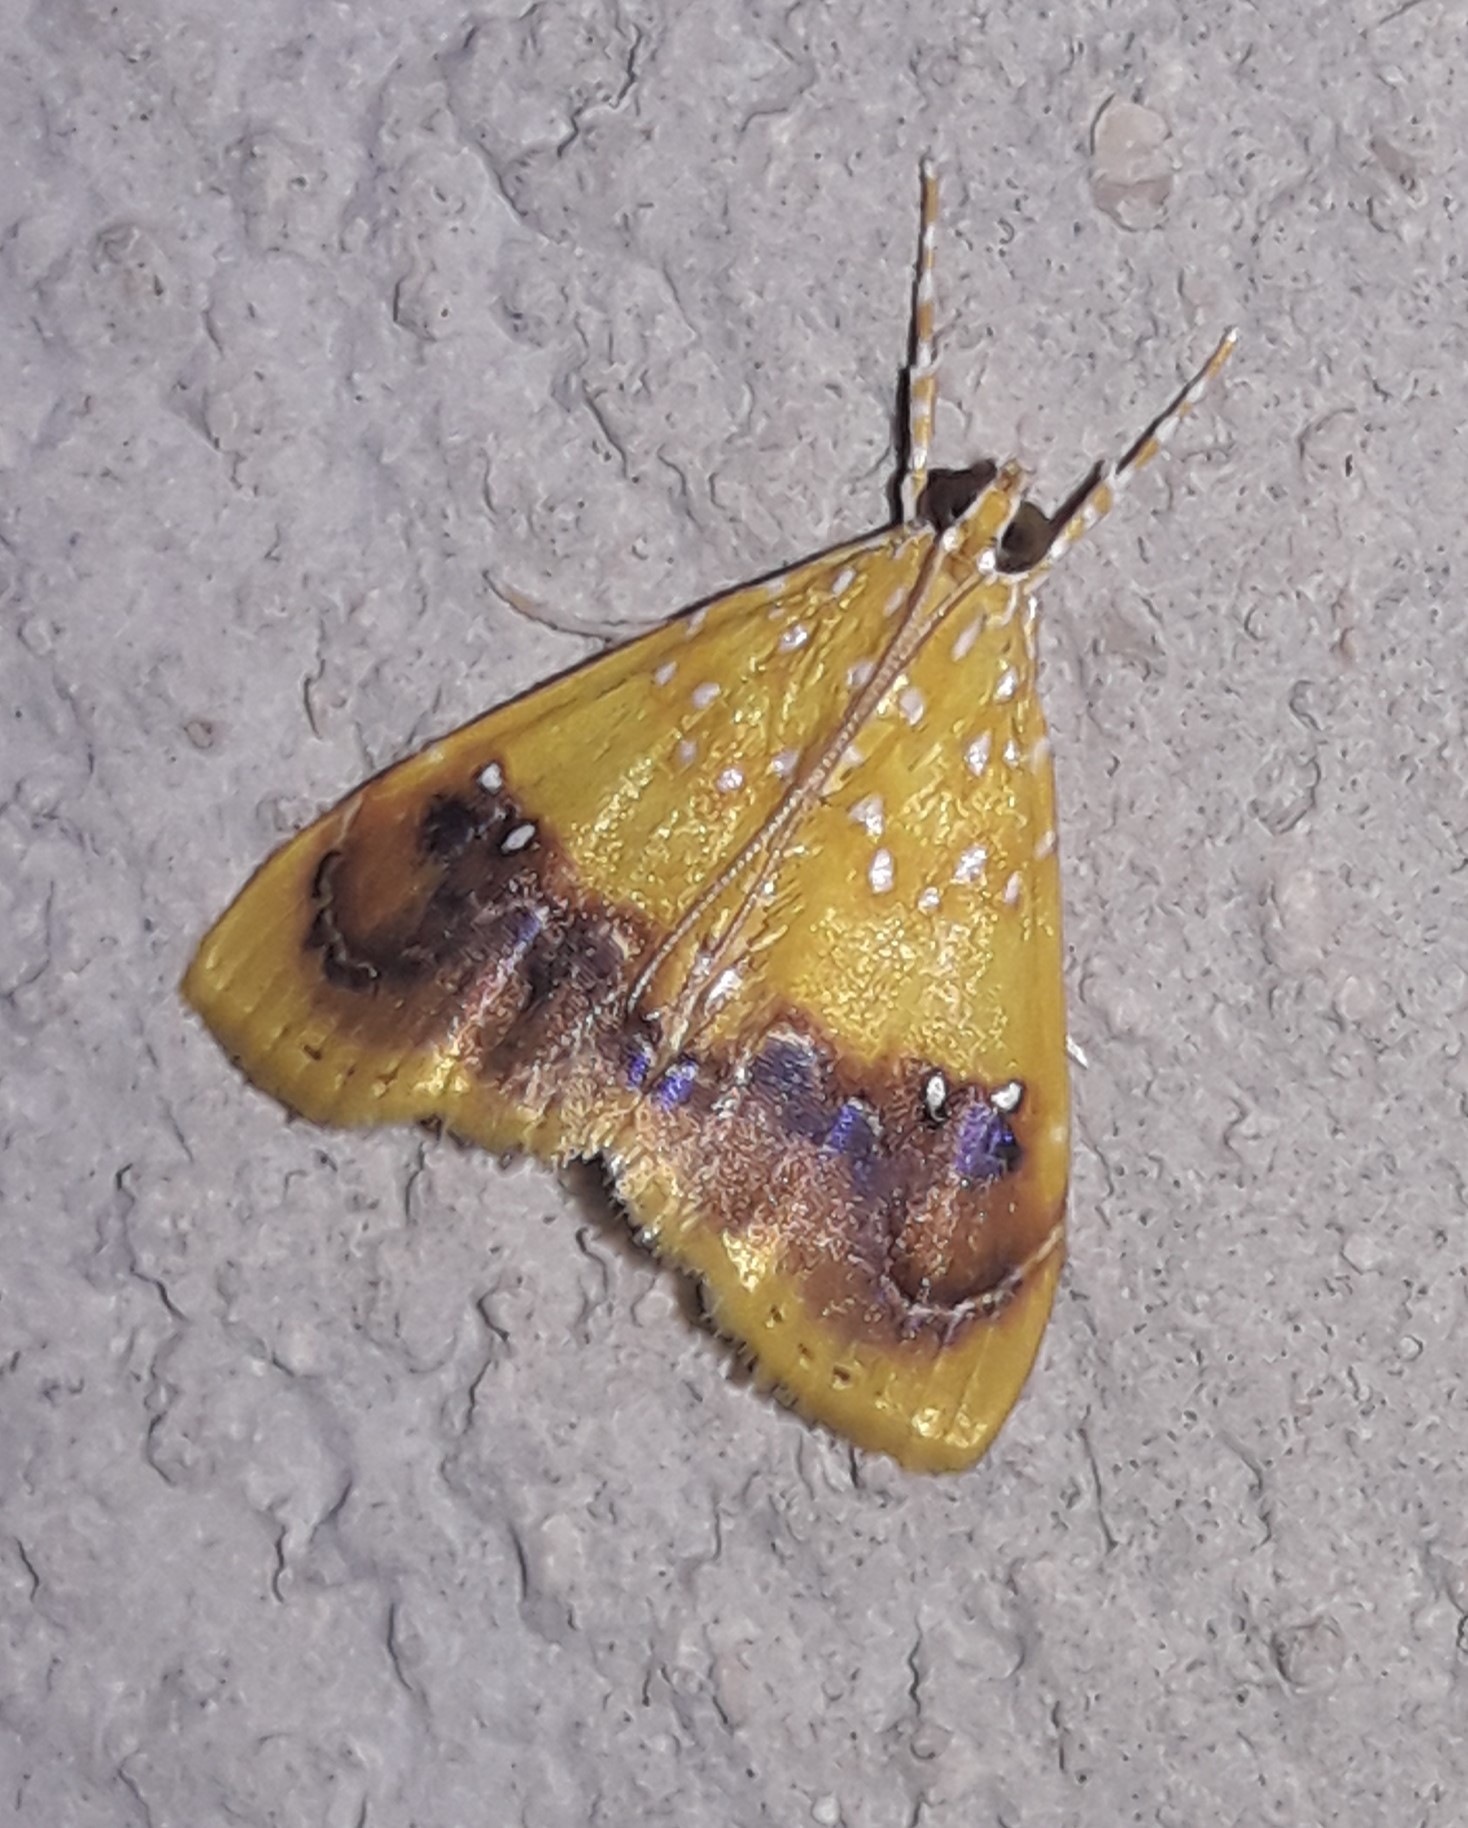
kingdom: Animalia
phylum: Arthropoda
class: Insecta
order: Lepidoptera
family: Crambidae
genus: Symphysa
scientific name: Symphysa
